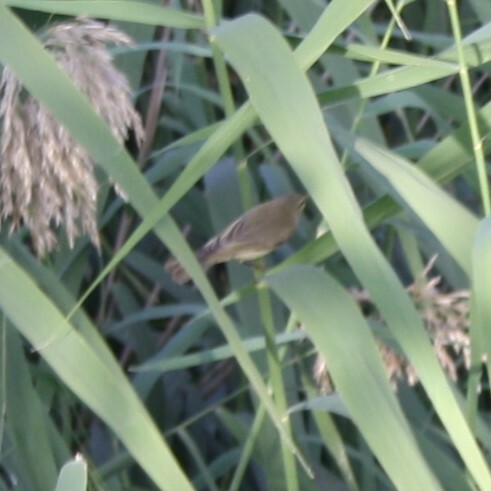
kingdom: Animalia
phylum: Chordata
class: Aves
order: Passeriformes
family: Phylloscopidae
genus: Phylloscopus
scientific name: Phylloscopus trochilus
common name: Willow warbler
